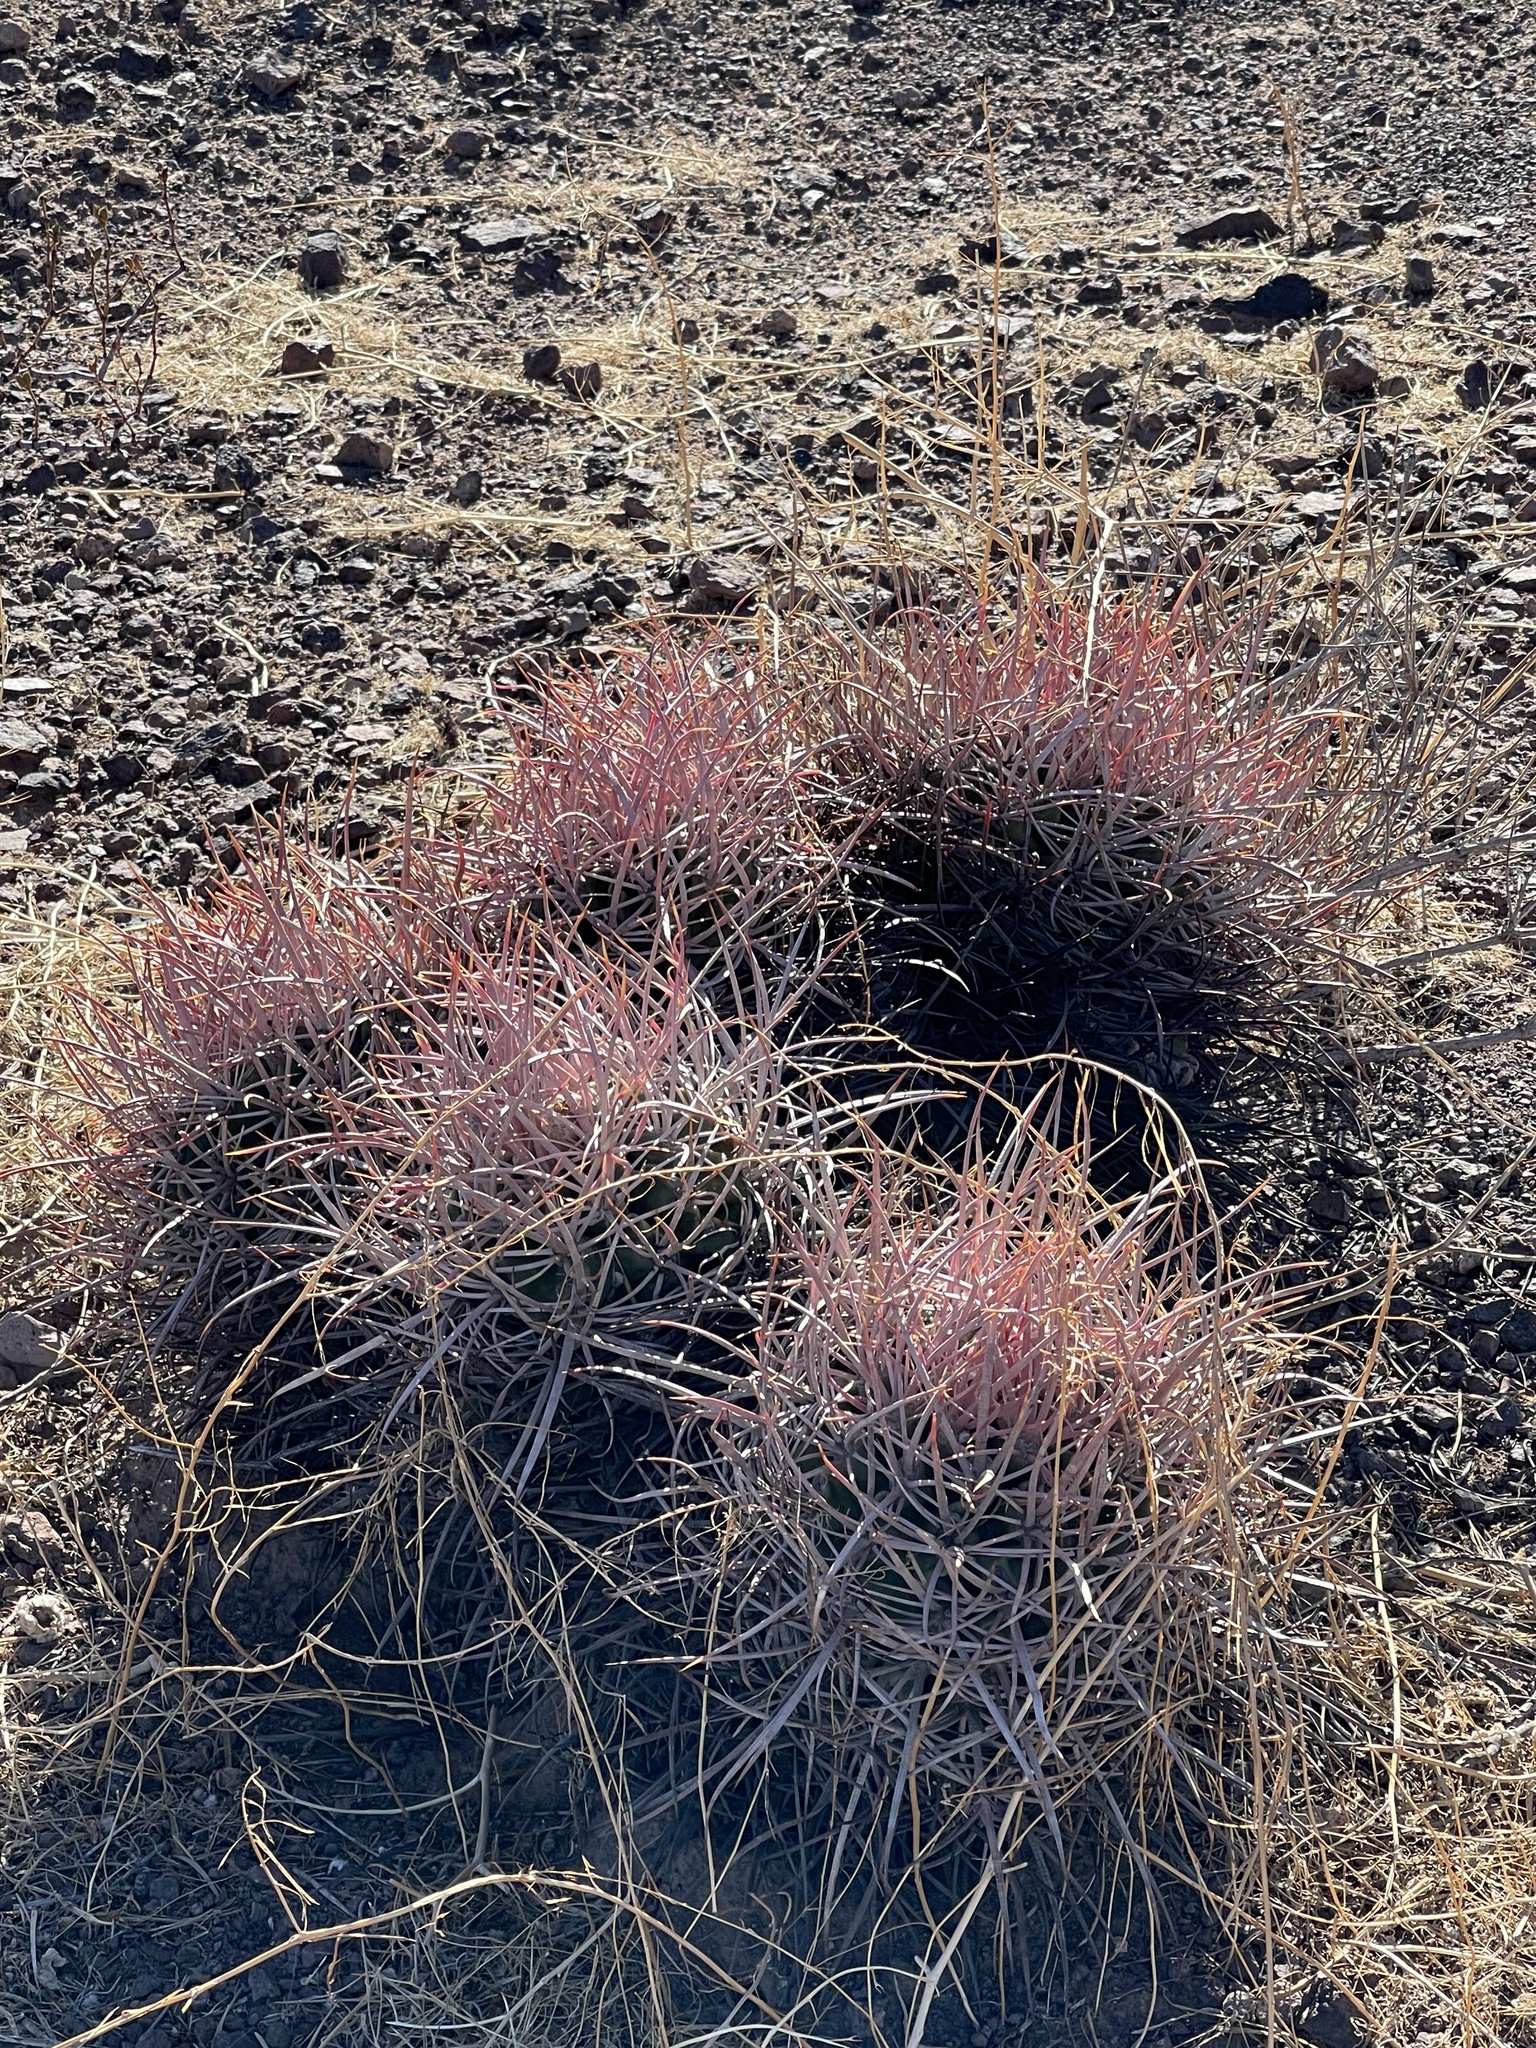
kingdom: Plantae
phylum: Tracheophyta
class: Magnoliopsida
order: Caryophyllales
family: Cactaceae
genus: Echinocactus
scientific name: Echinocactus polycephalus
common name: Cottontop cactus
